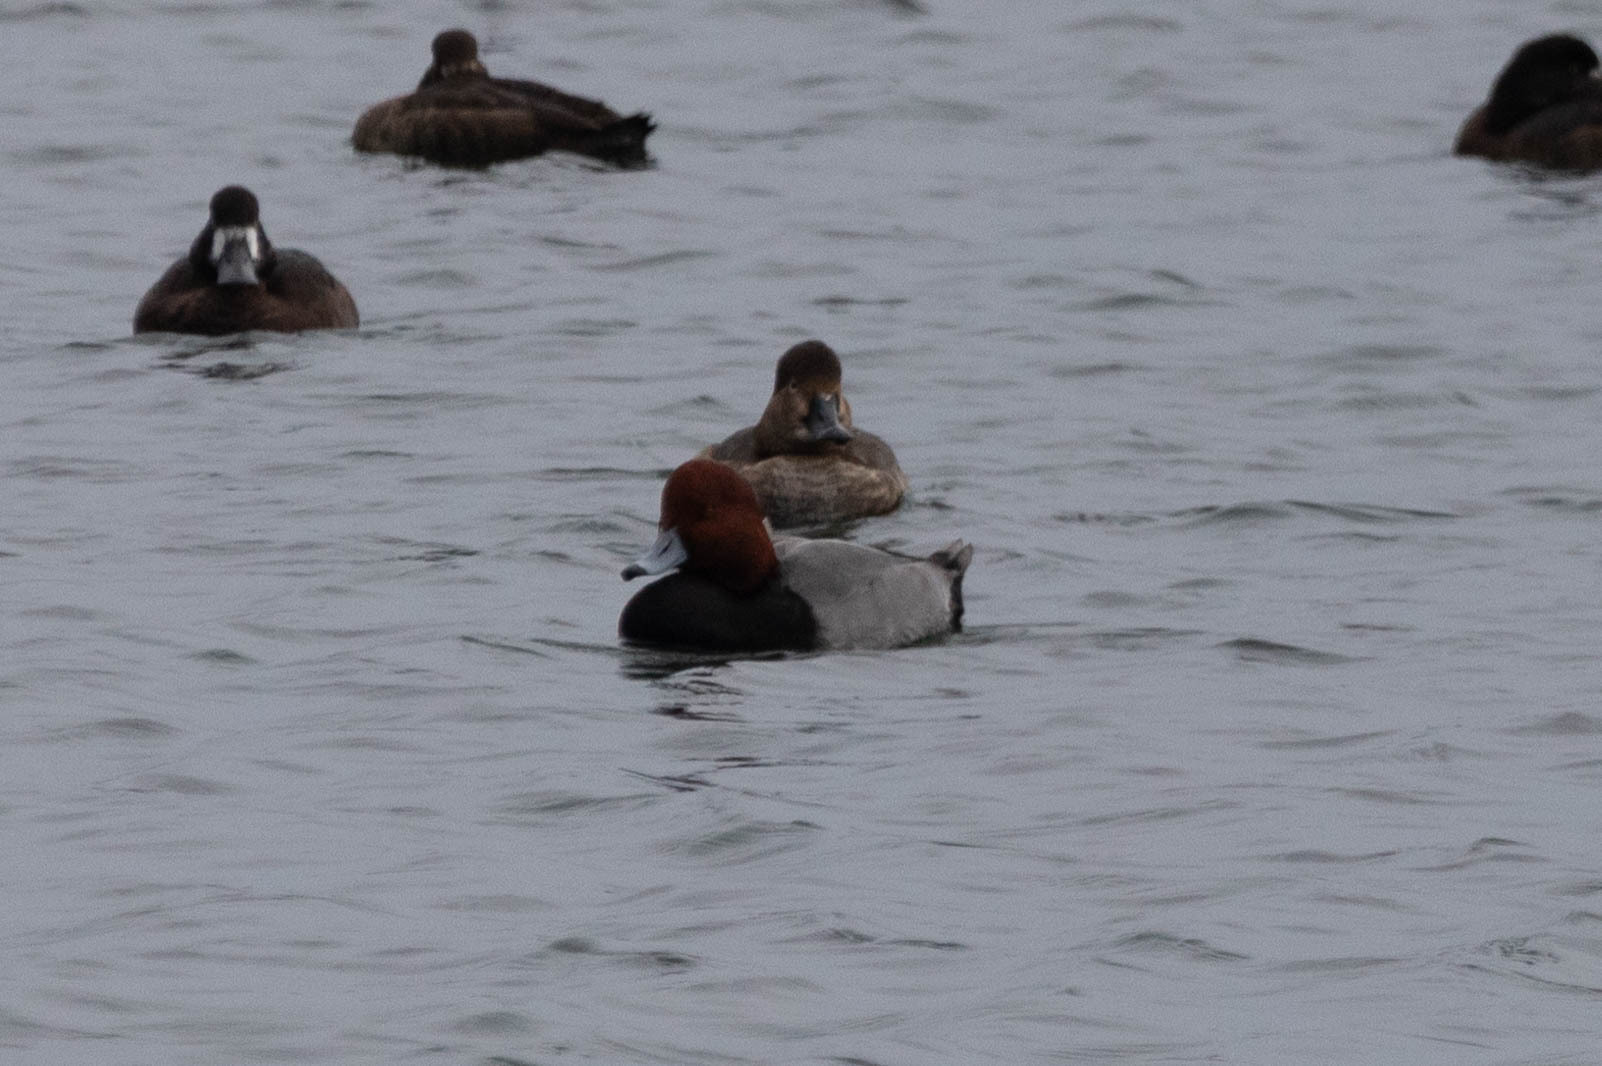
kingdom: Animalia
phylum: Chordata
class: Aves
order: Anseriformes
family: Anatidae
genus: Aythya
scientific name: Aythya americana
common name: Redhead
